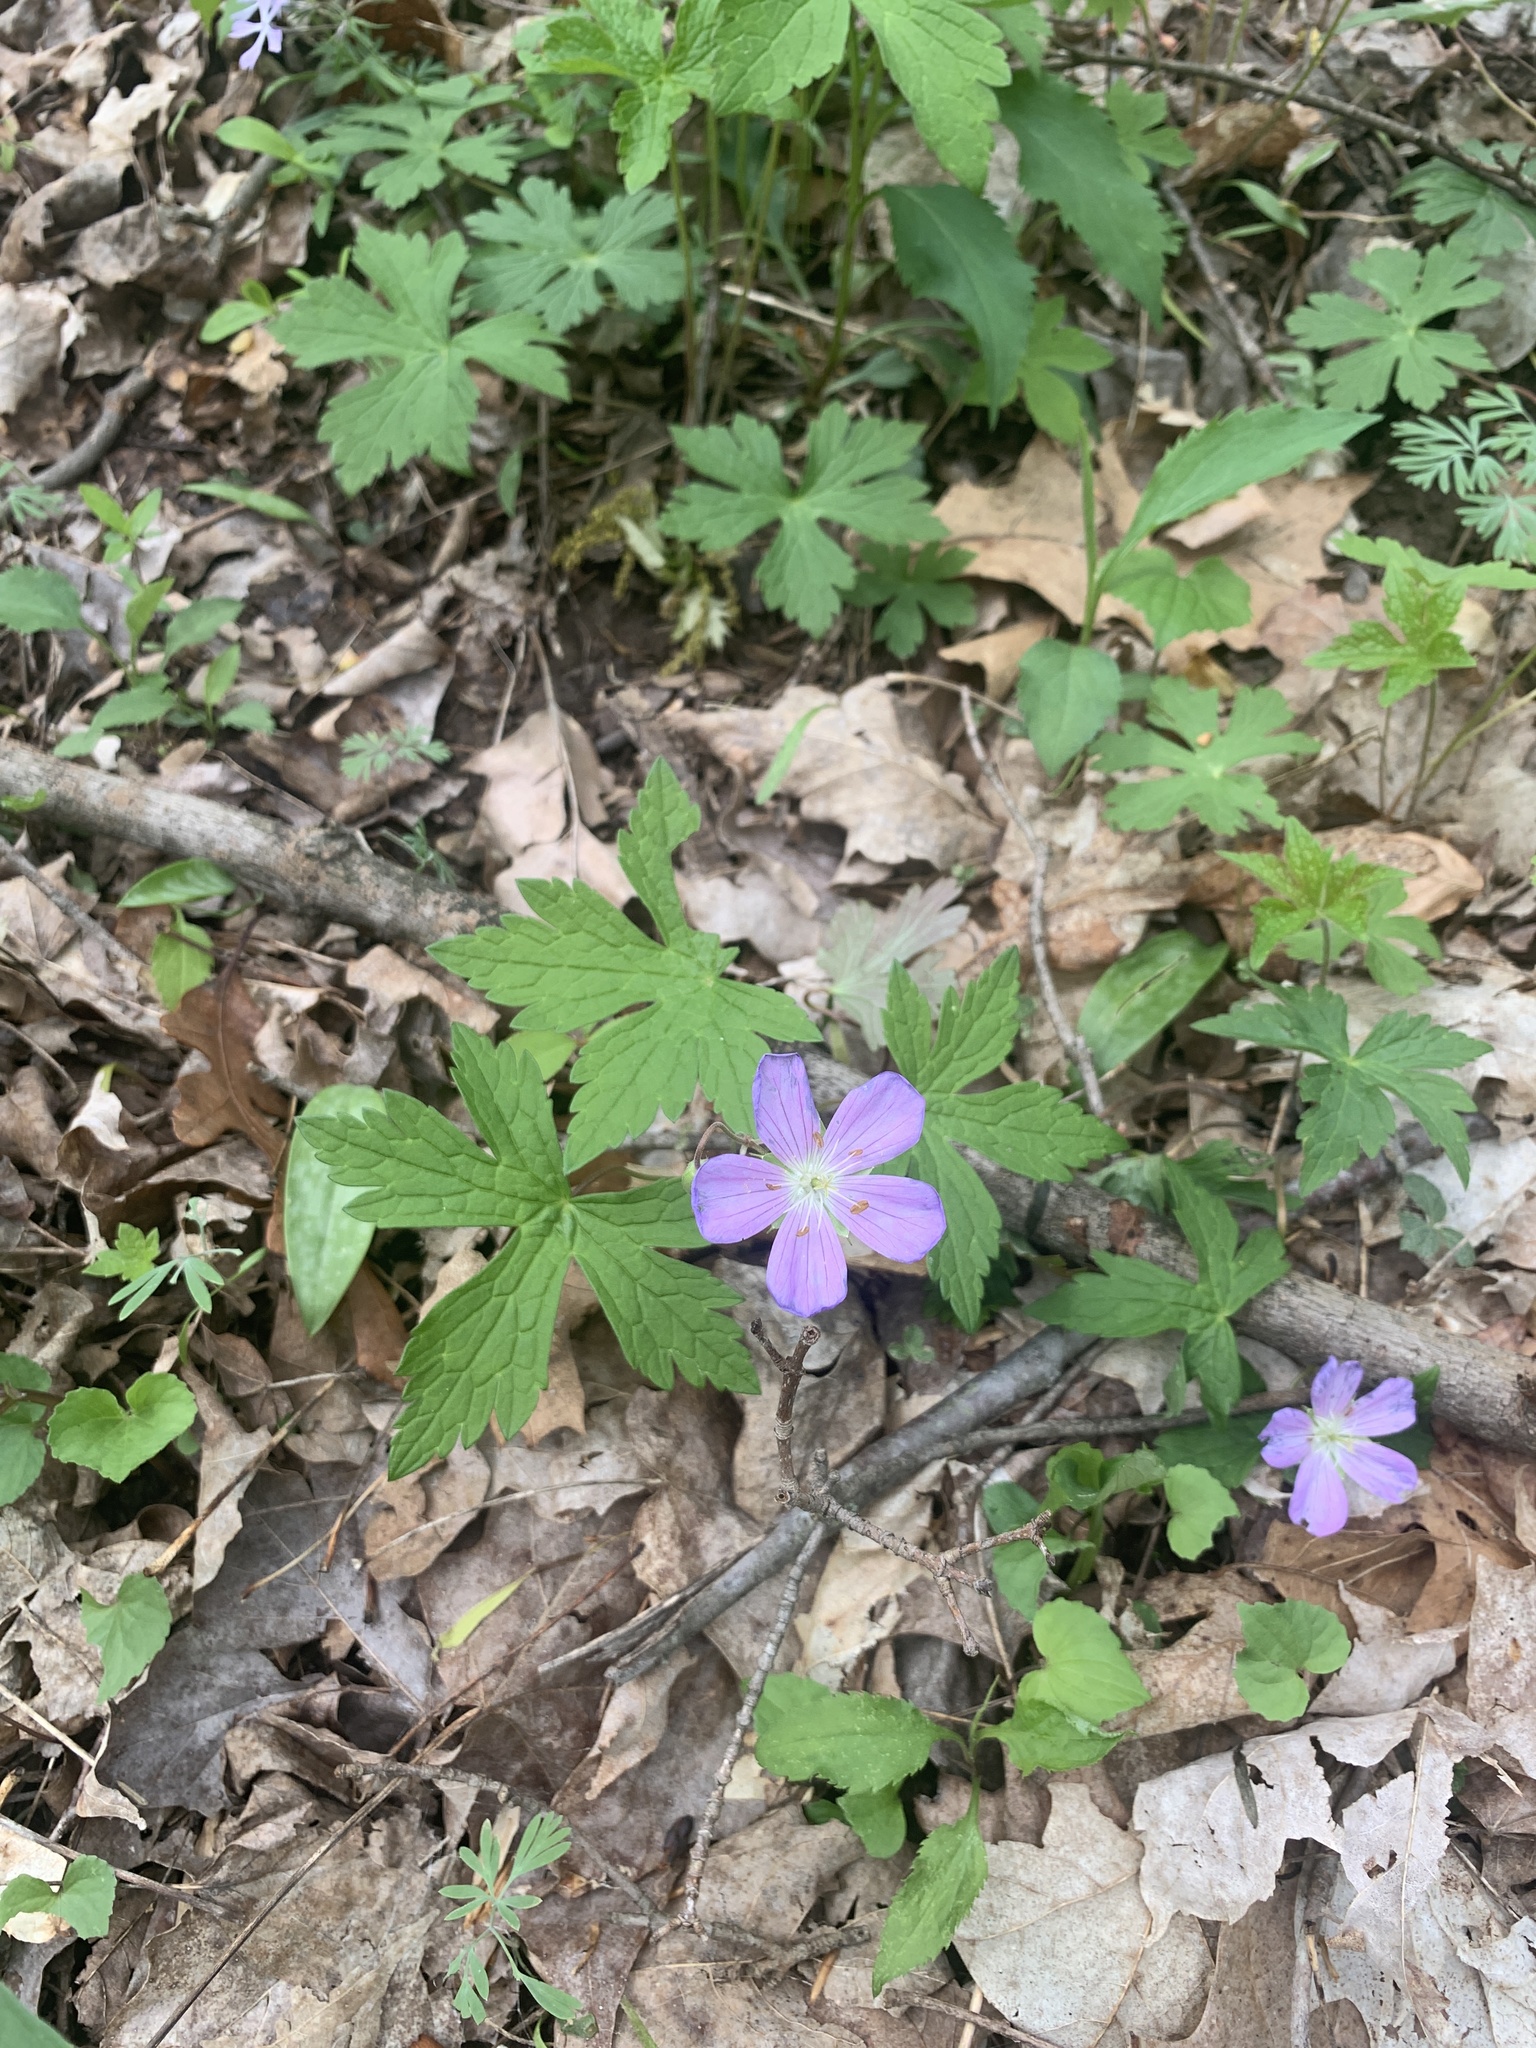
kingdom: Plantae
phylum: Tracheophyta
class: Magnoliopsida
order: Geraniales
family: Geraniaceae
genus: Geranium
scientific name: Geranium maculatum
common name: Spotted geranium
